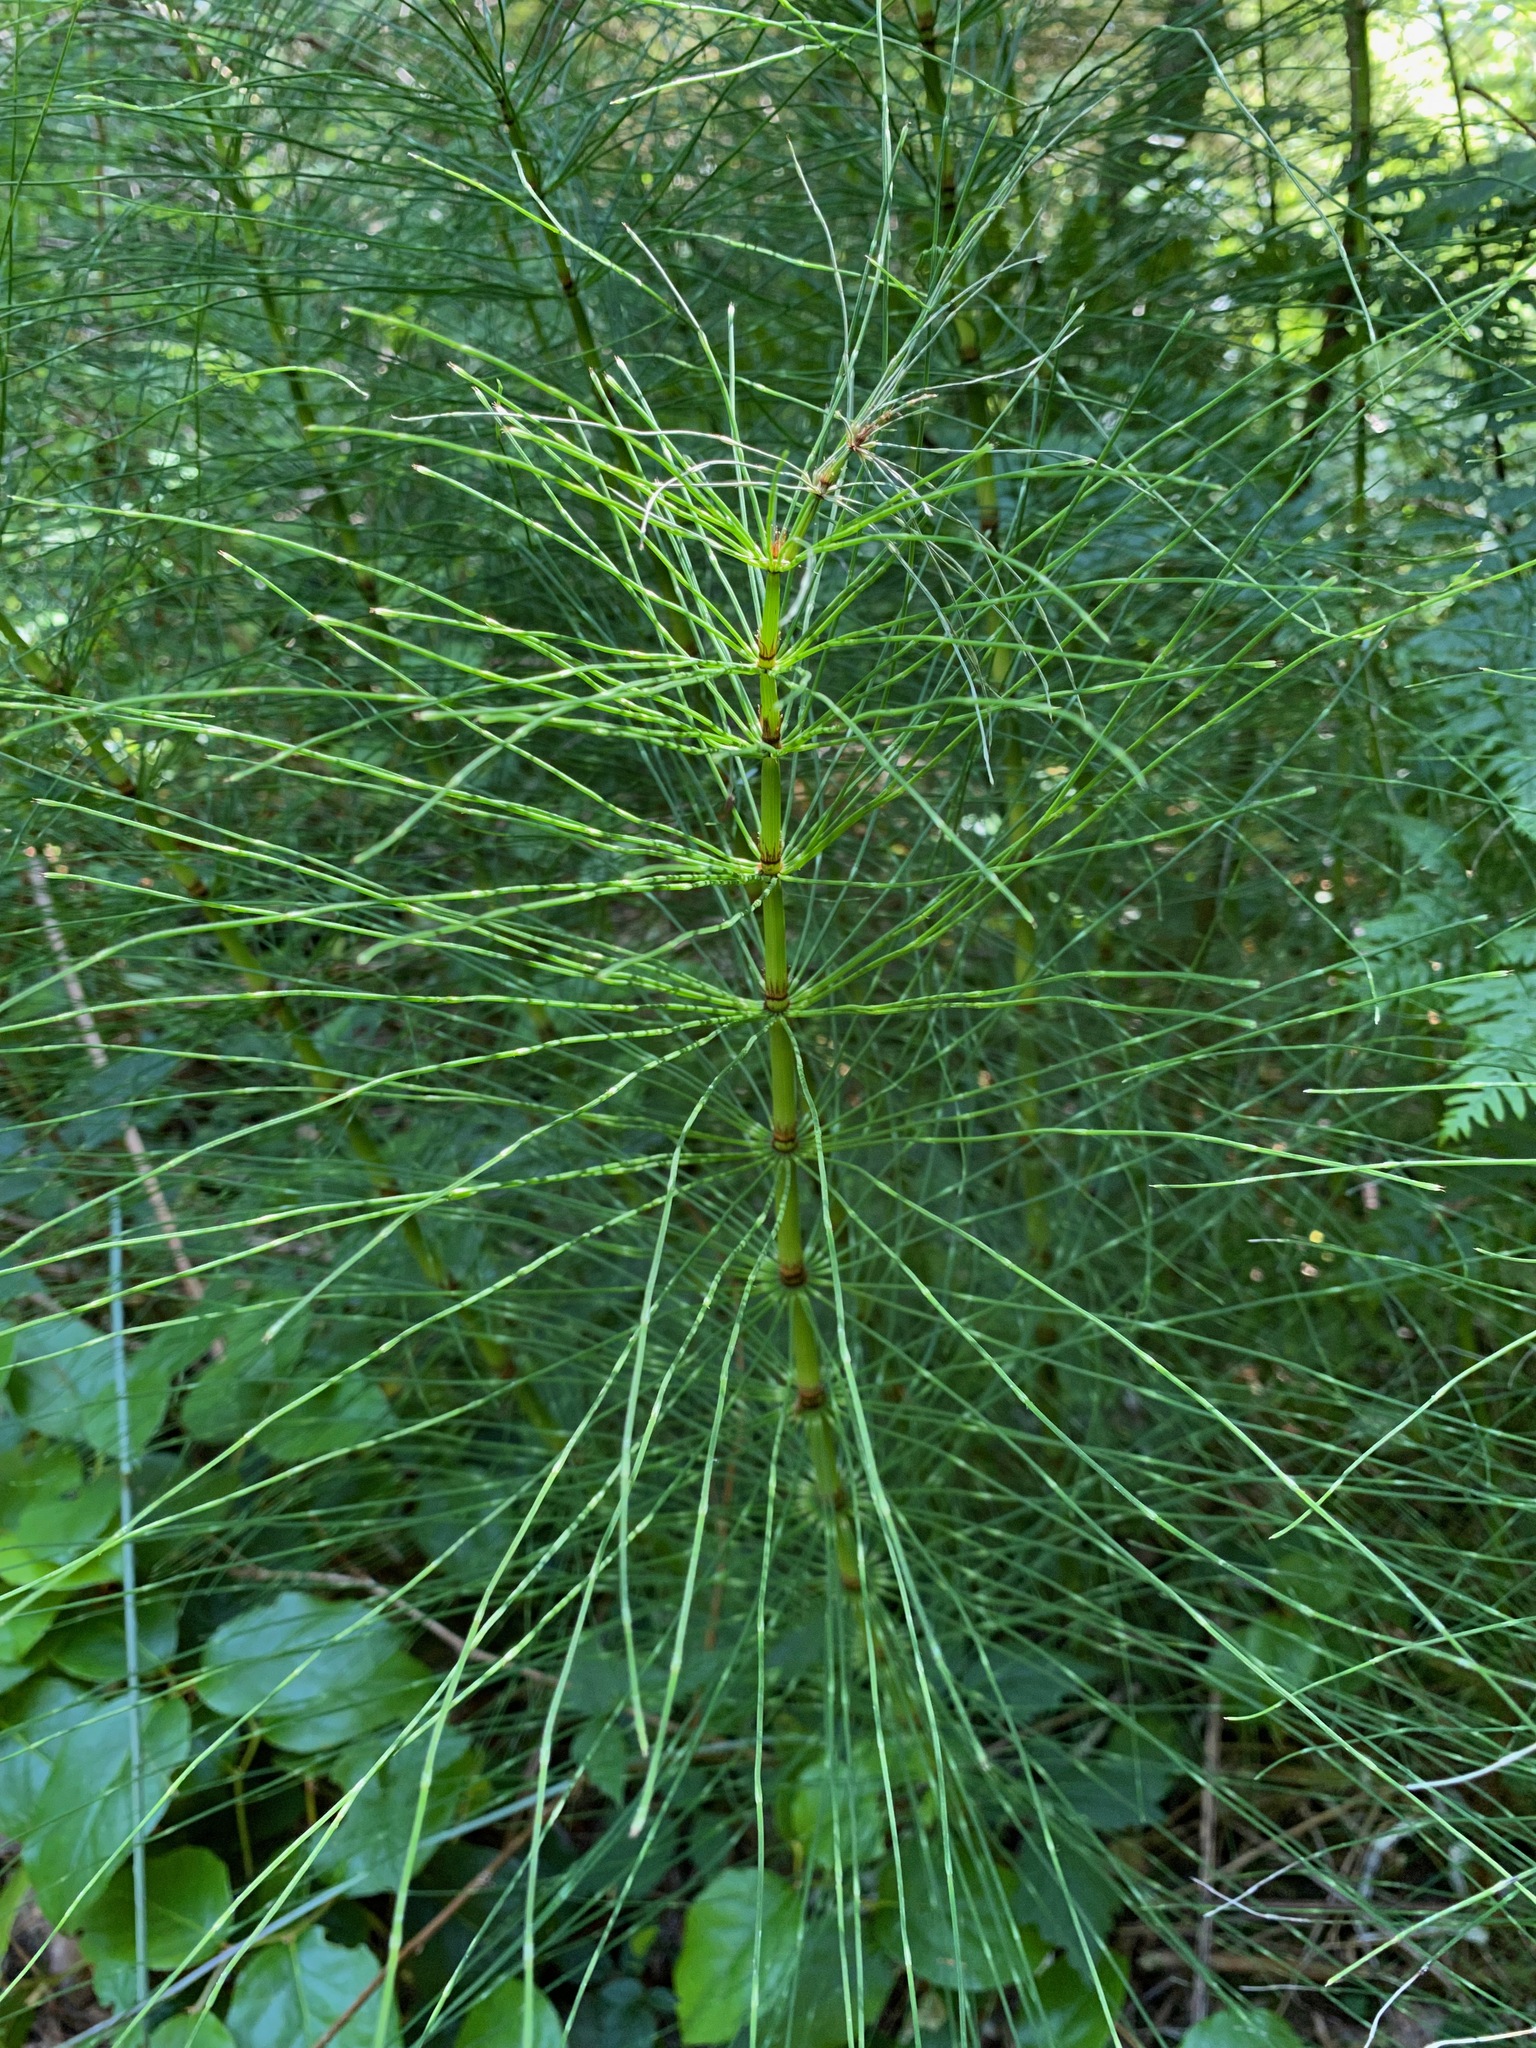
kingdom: Plantae
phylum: Tracheophyta
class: Polypodiopsida
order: Equisetales
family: Equisetaceae
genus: Equisetum
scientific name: Equisetum telmateia
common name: Great horsetail
